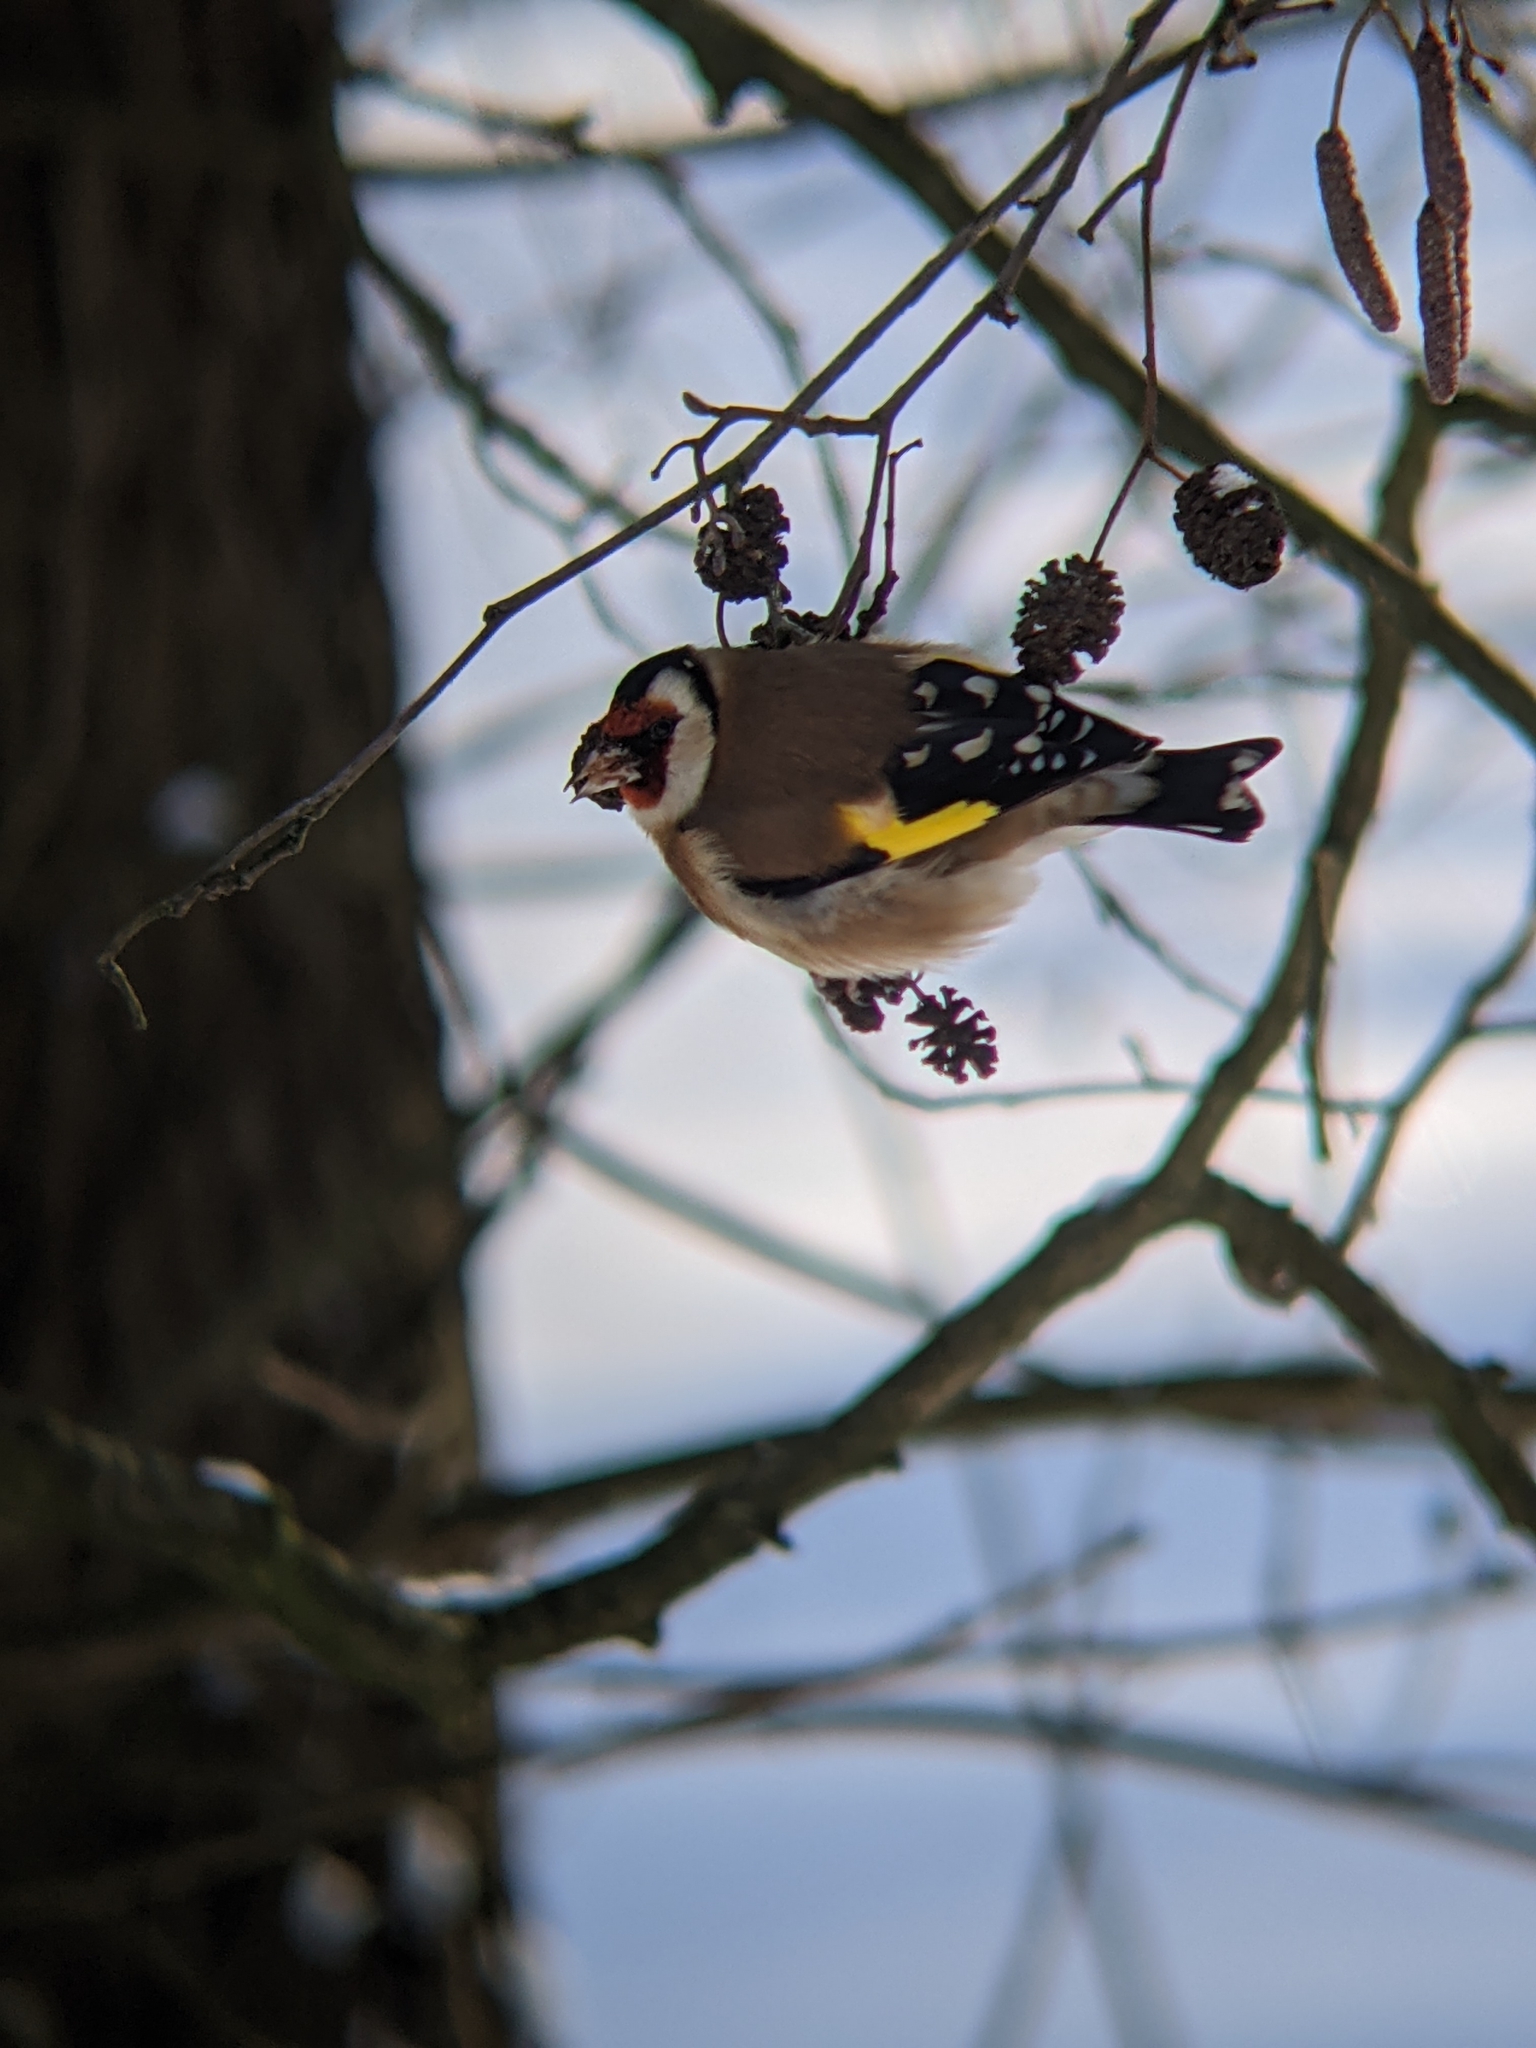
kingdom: Animalia
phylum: Chordata
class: Aves
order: Passeriformes
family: Fringillidae
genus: Carduelis
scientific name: Carduelis carduelis
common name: European goldfinch
